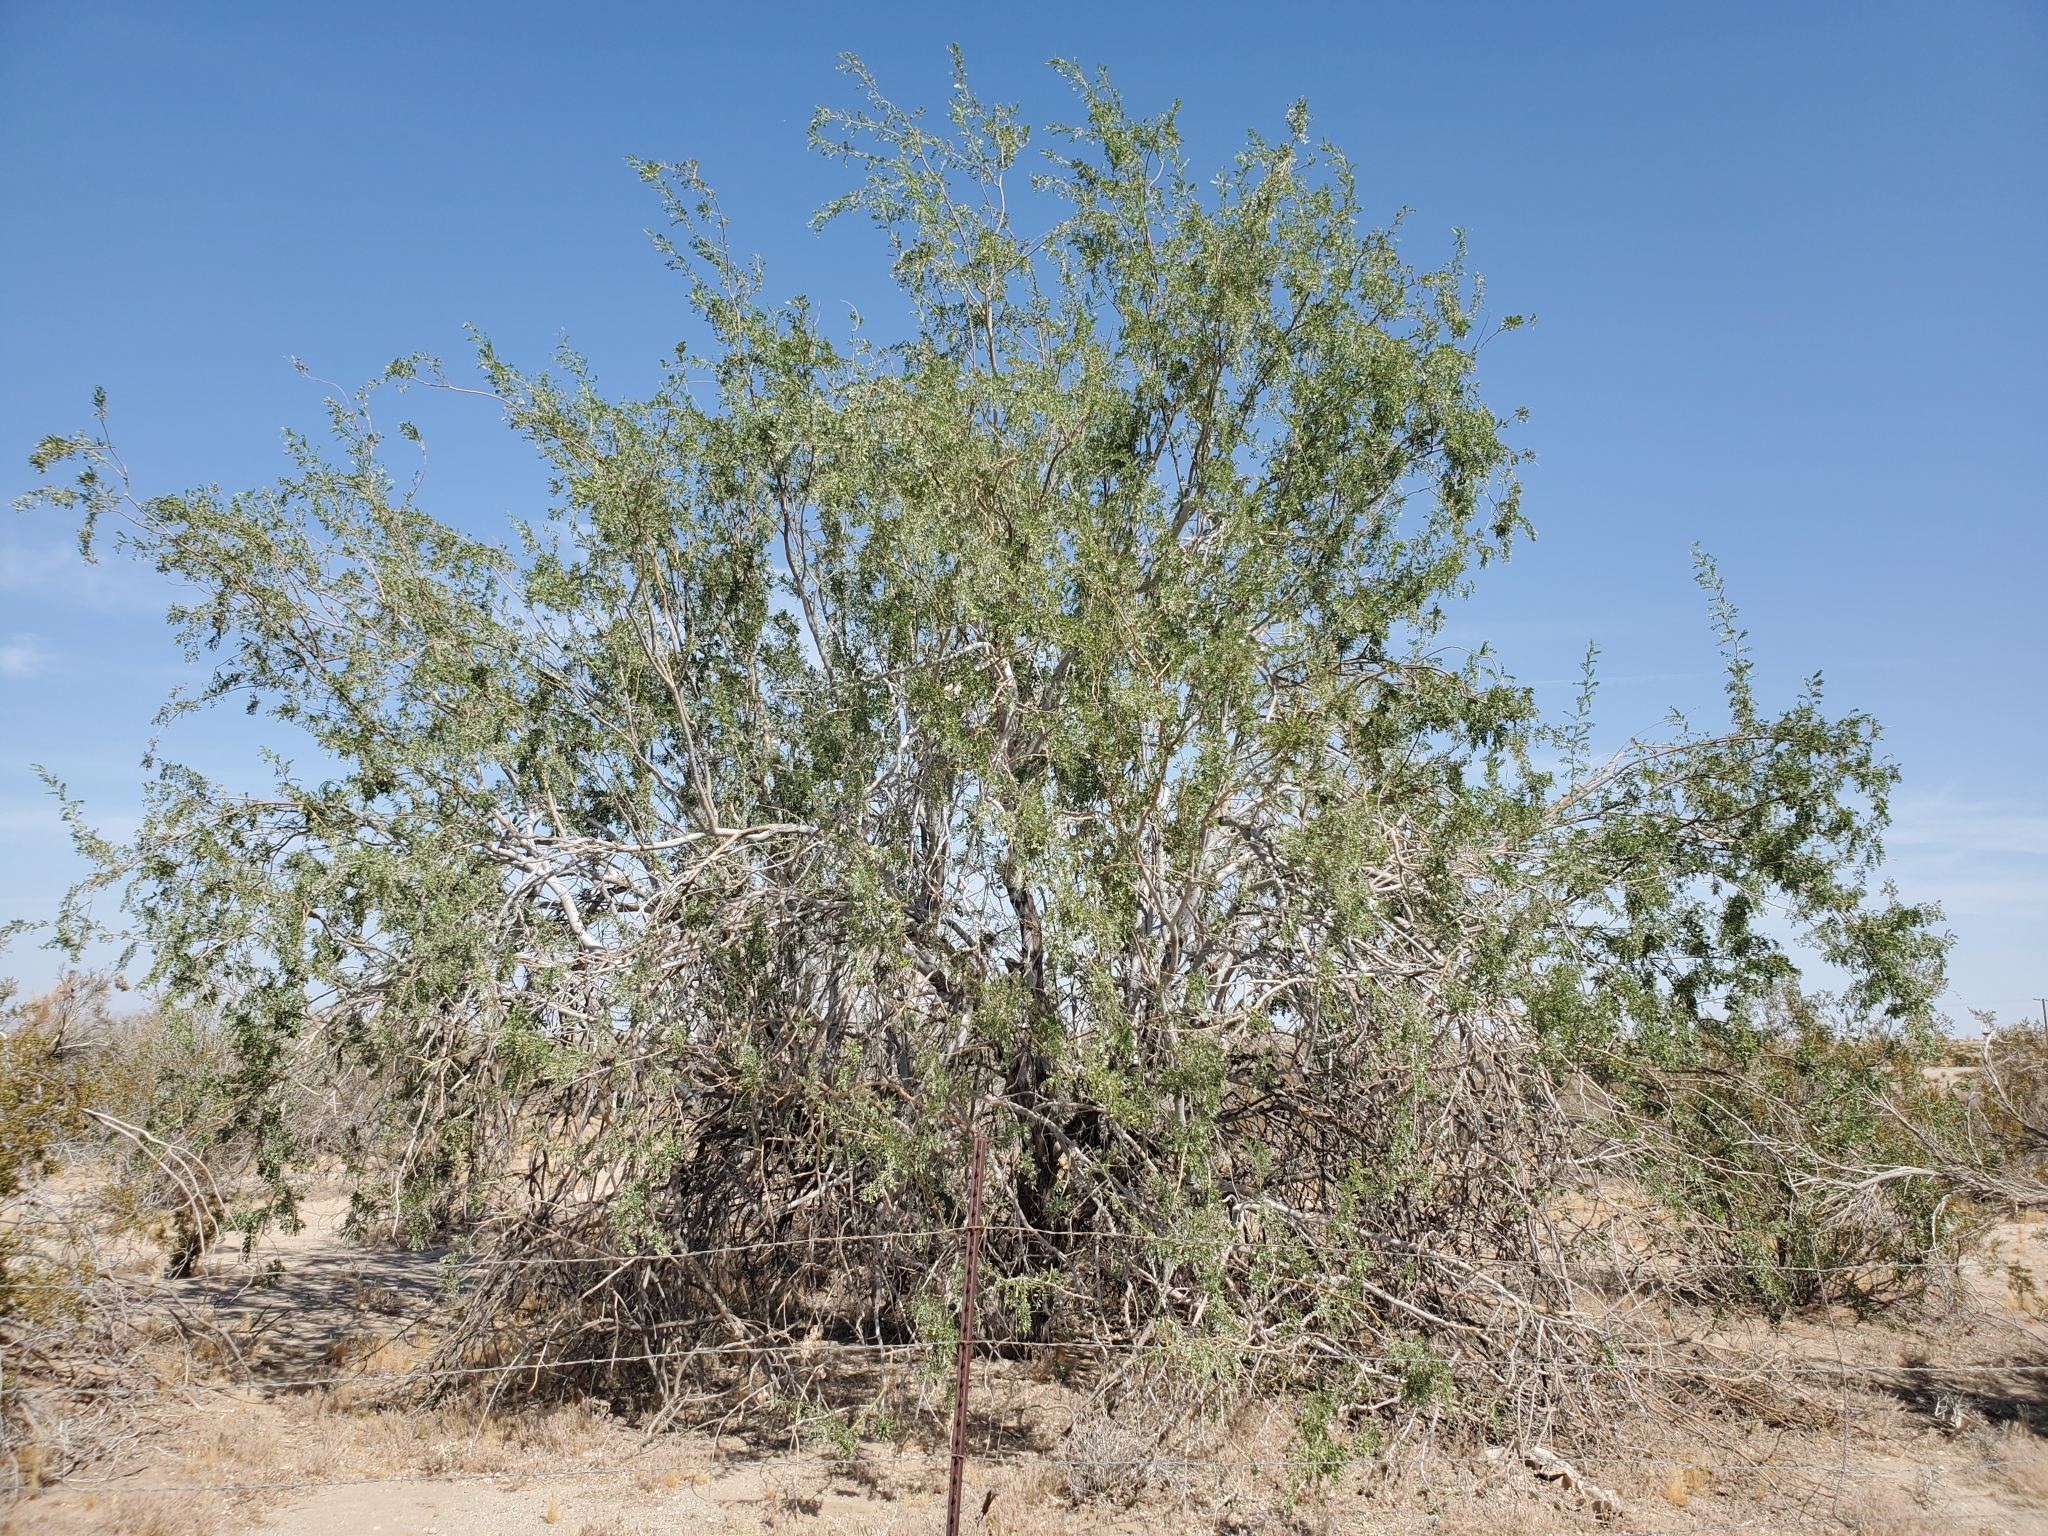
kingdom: Plantae
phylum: Tracheophyta
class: Magnoliopsida
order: Fabales
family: Fabaceae
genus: Olneya
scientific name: Olneya tesota
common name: Desert ironwood
